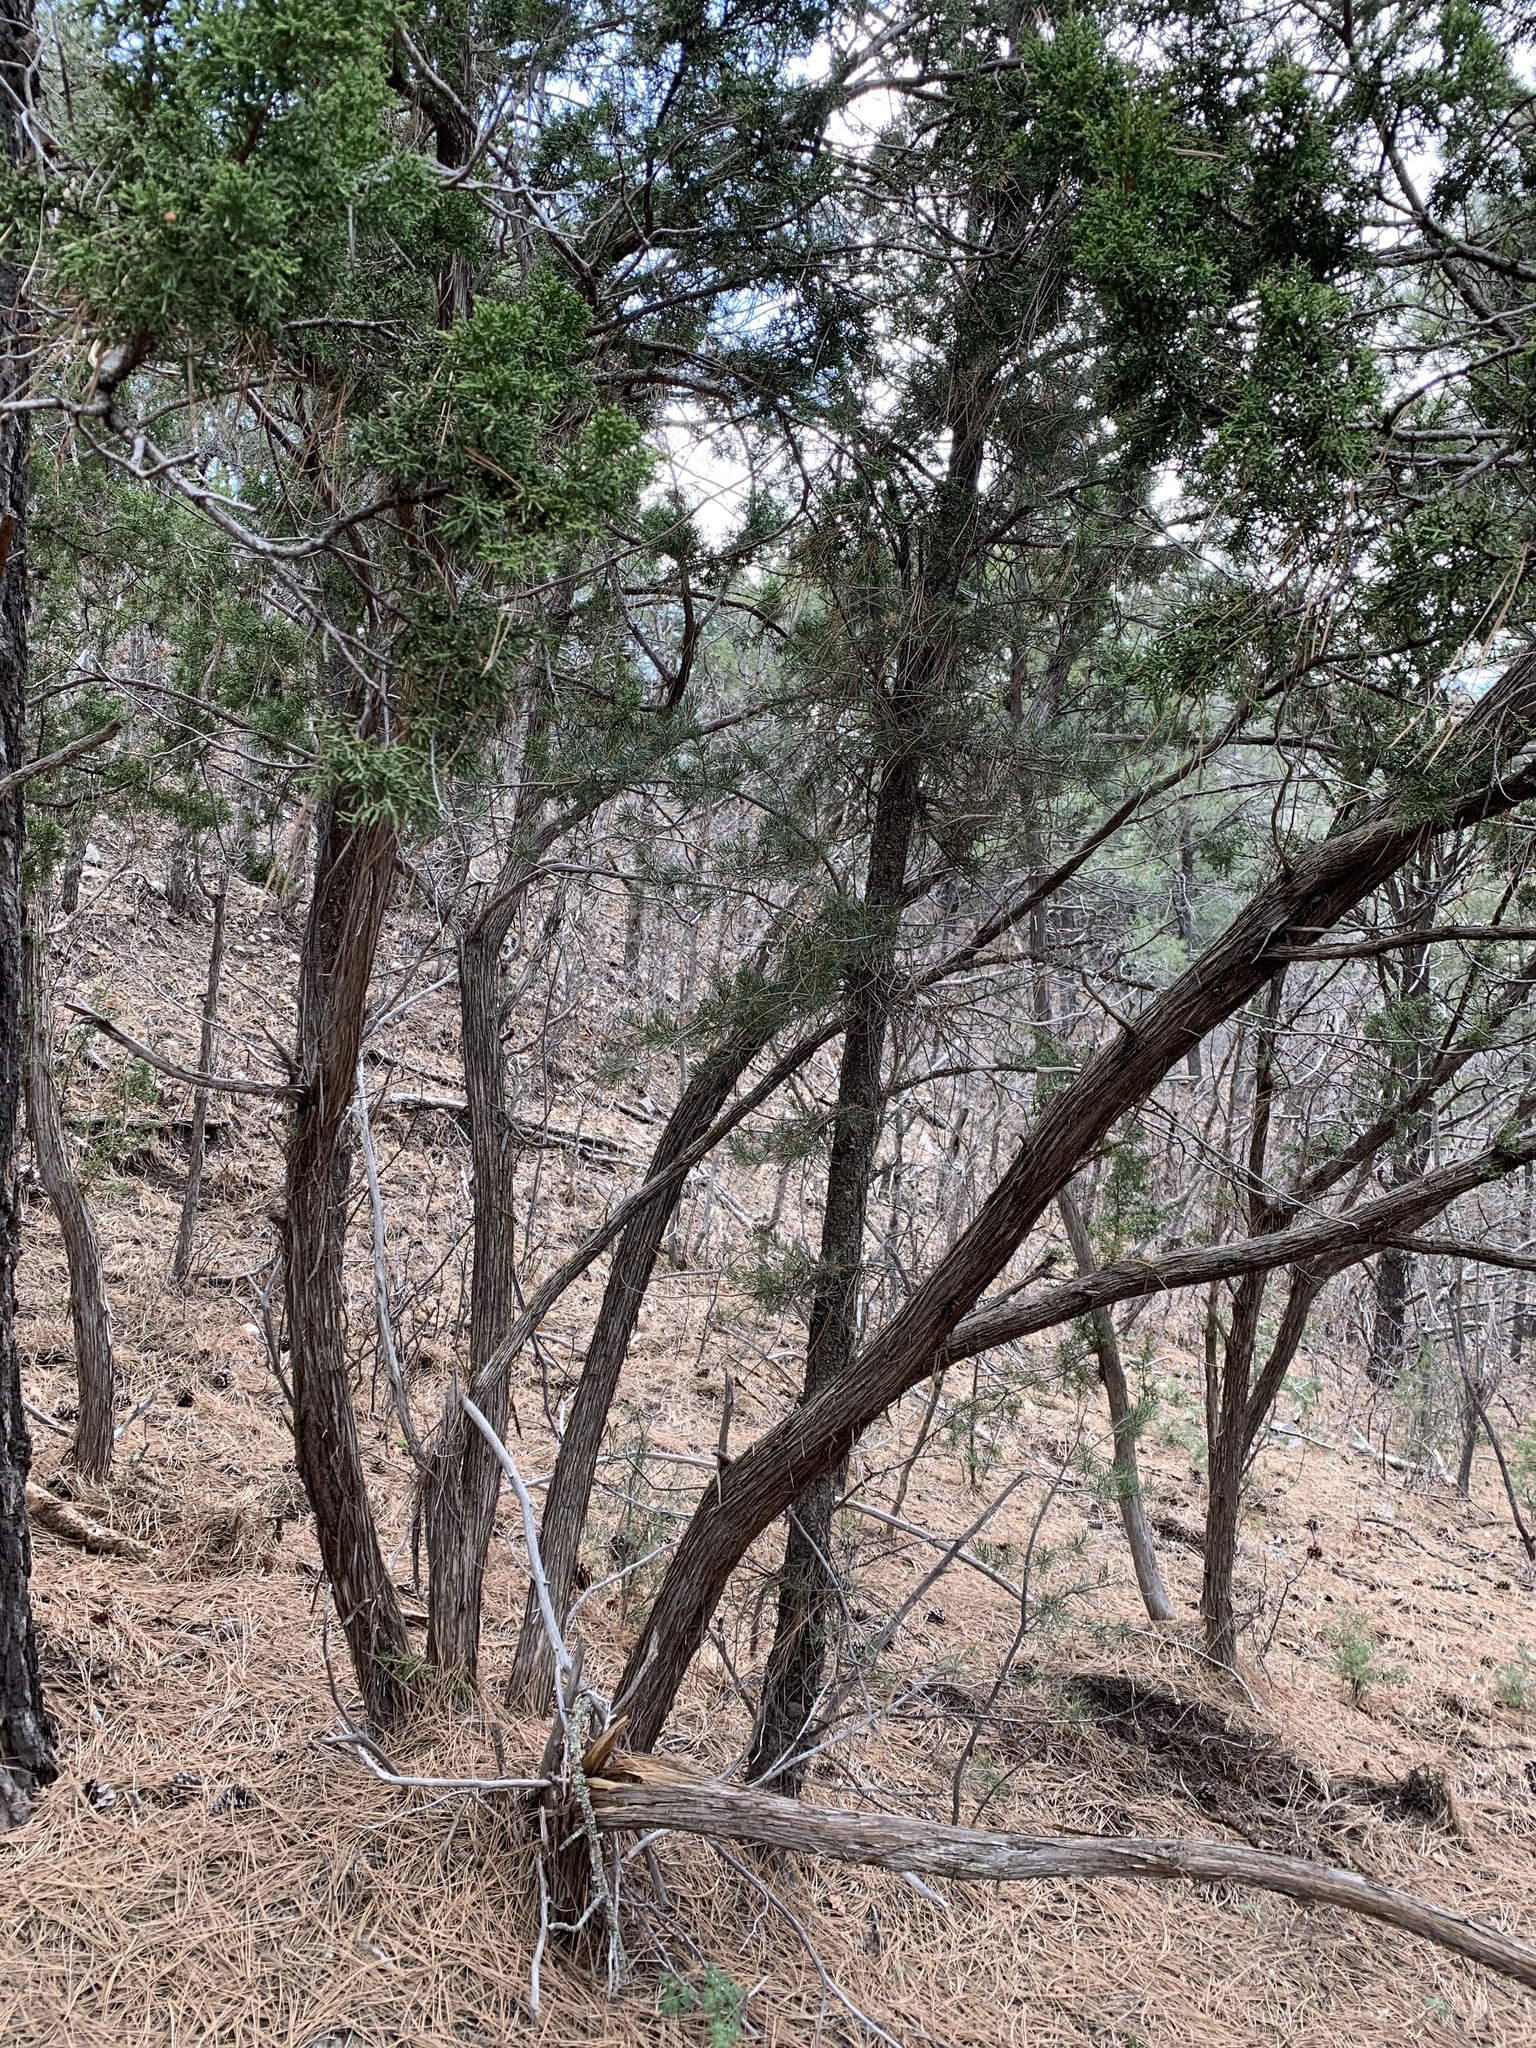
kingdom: Plantae
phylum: Tracheophyta
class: Pinopsida
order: Pinales
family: Cupressaceae
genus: Juniperus
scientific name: Juniperus monosperma
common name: One-seed juniper
